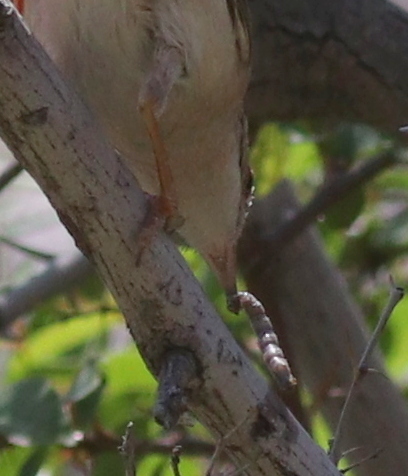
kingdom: Animalia
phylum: Chordata
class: Aves
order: Passeriformes
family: Sylviidae
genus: Sylvia
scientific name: Sylvia mystacea
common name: Menetries's warbler
